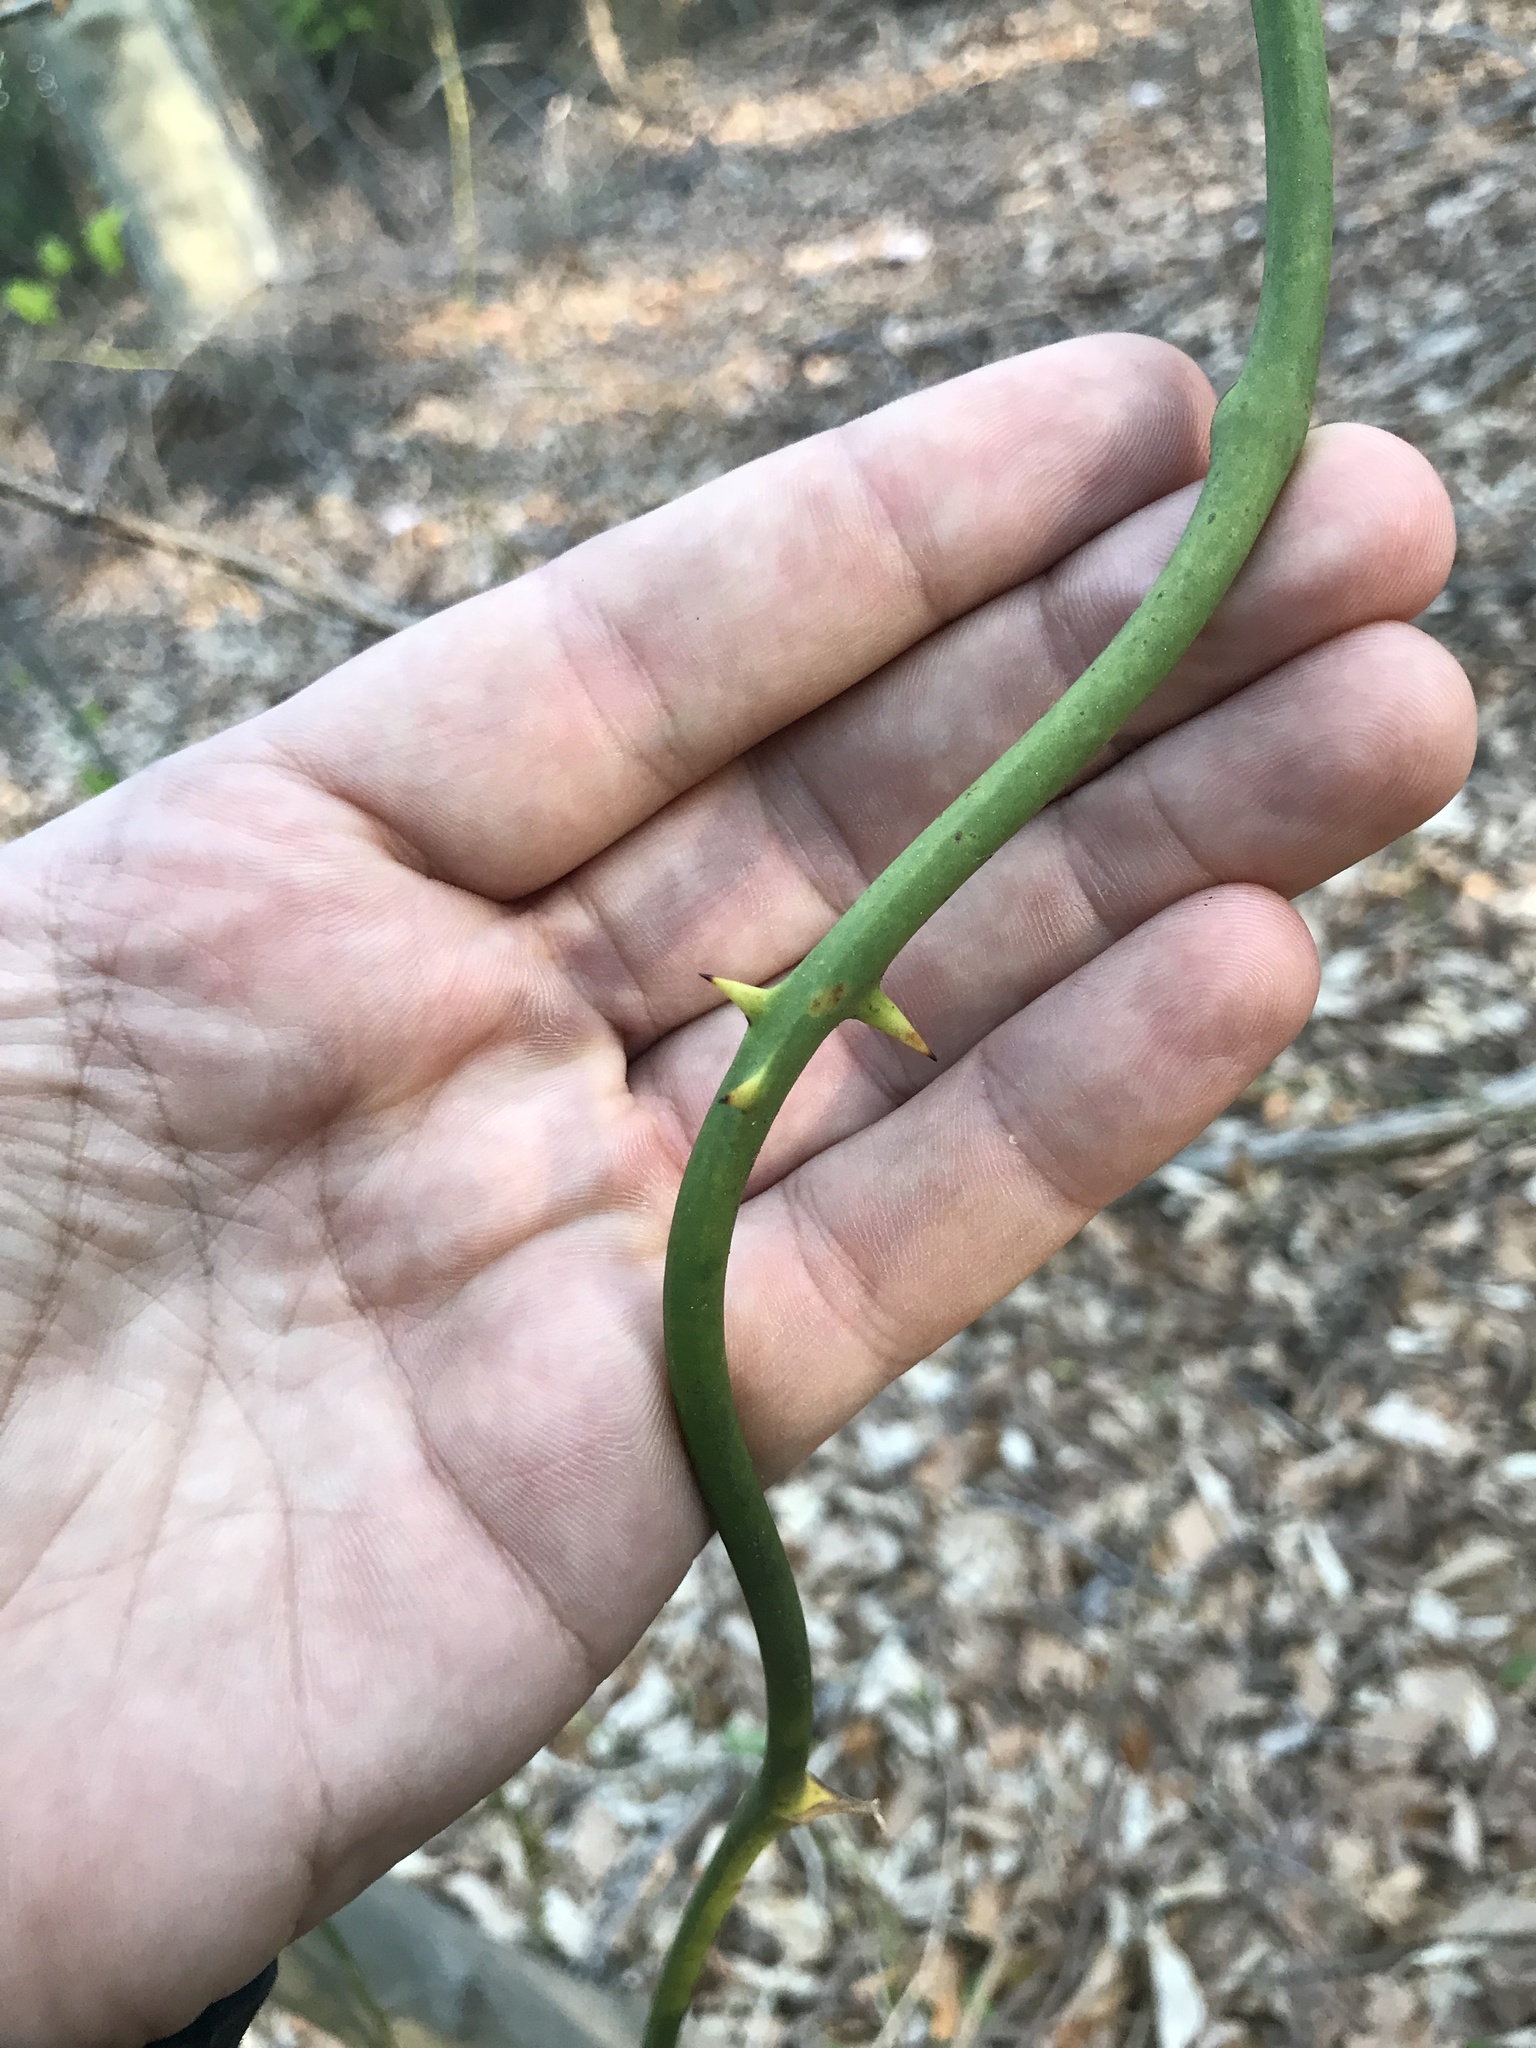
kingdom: Plantae
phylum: Tracheophyta
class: Liliopsida
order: Liliales
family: Smilacaceae
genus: Smilax
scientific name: Smilax rotundifolia
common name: Bullbriar
